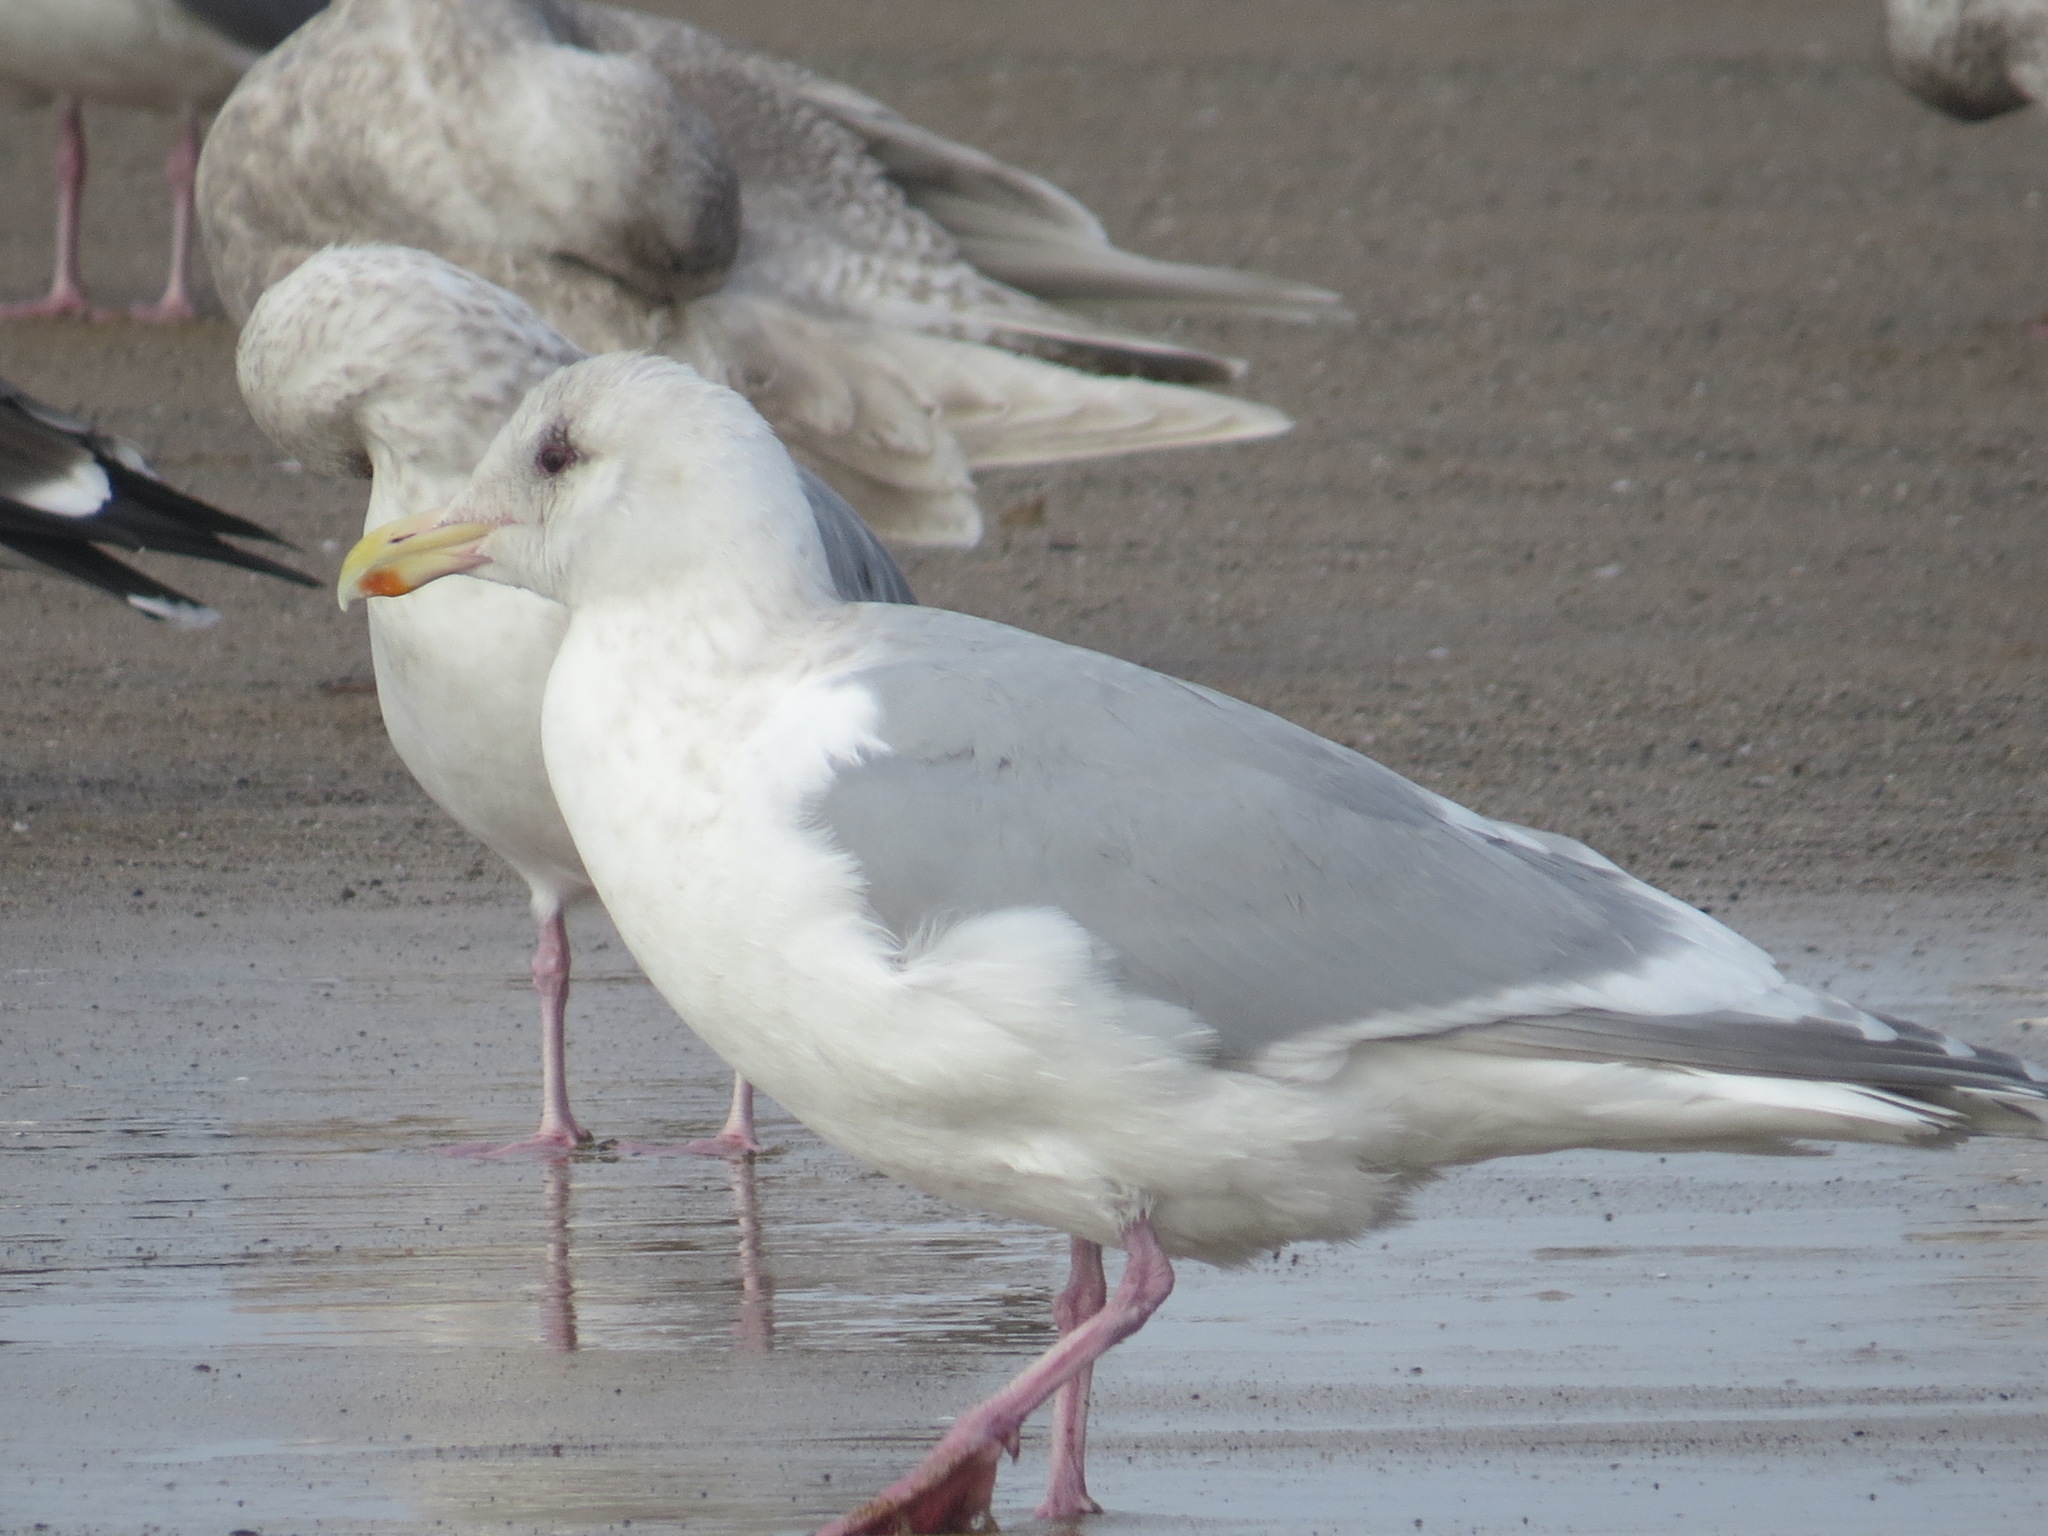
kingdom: Animalia
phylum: Chordata
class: Aves
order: Charadriiformes
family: Laridae
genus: Larus
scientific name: Larus glaucescens
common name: Glaucous-winged gull
